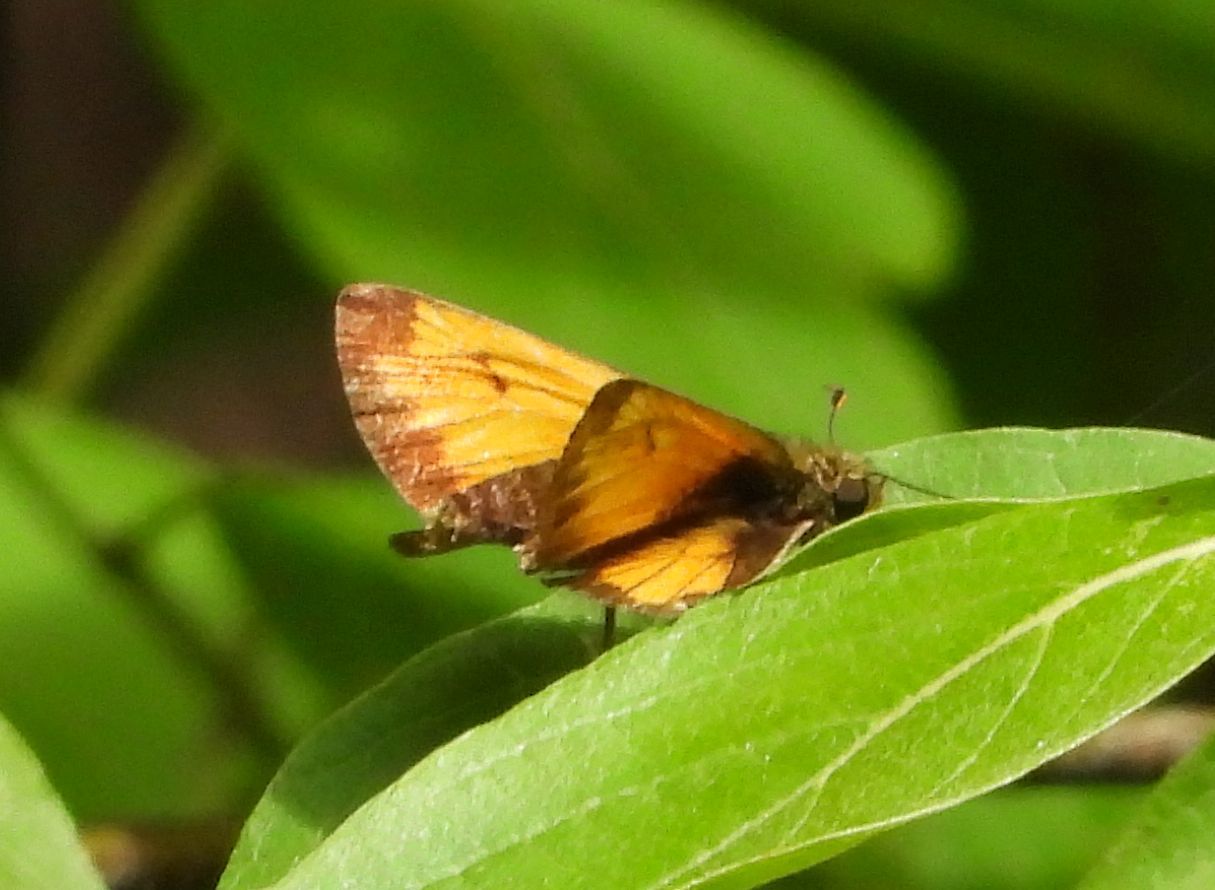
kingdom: Animalia
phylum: Arthropoda
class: Insecta
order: Lepidoptera
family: Hesperiidae
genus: Lon
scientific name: Lon hobomok
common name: Hobomok skipper
